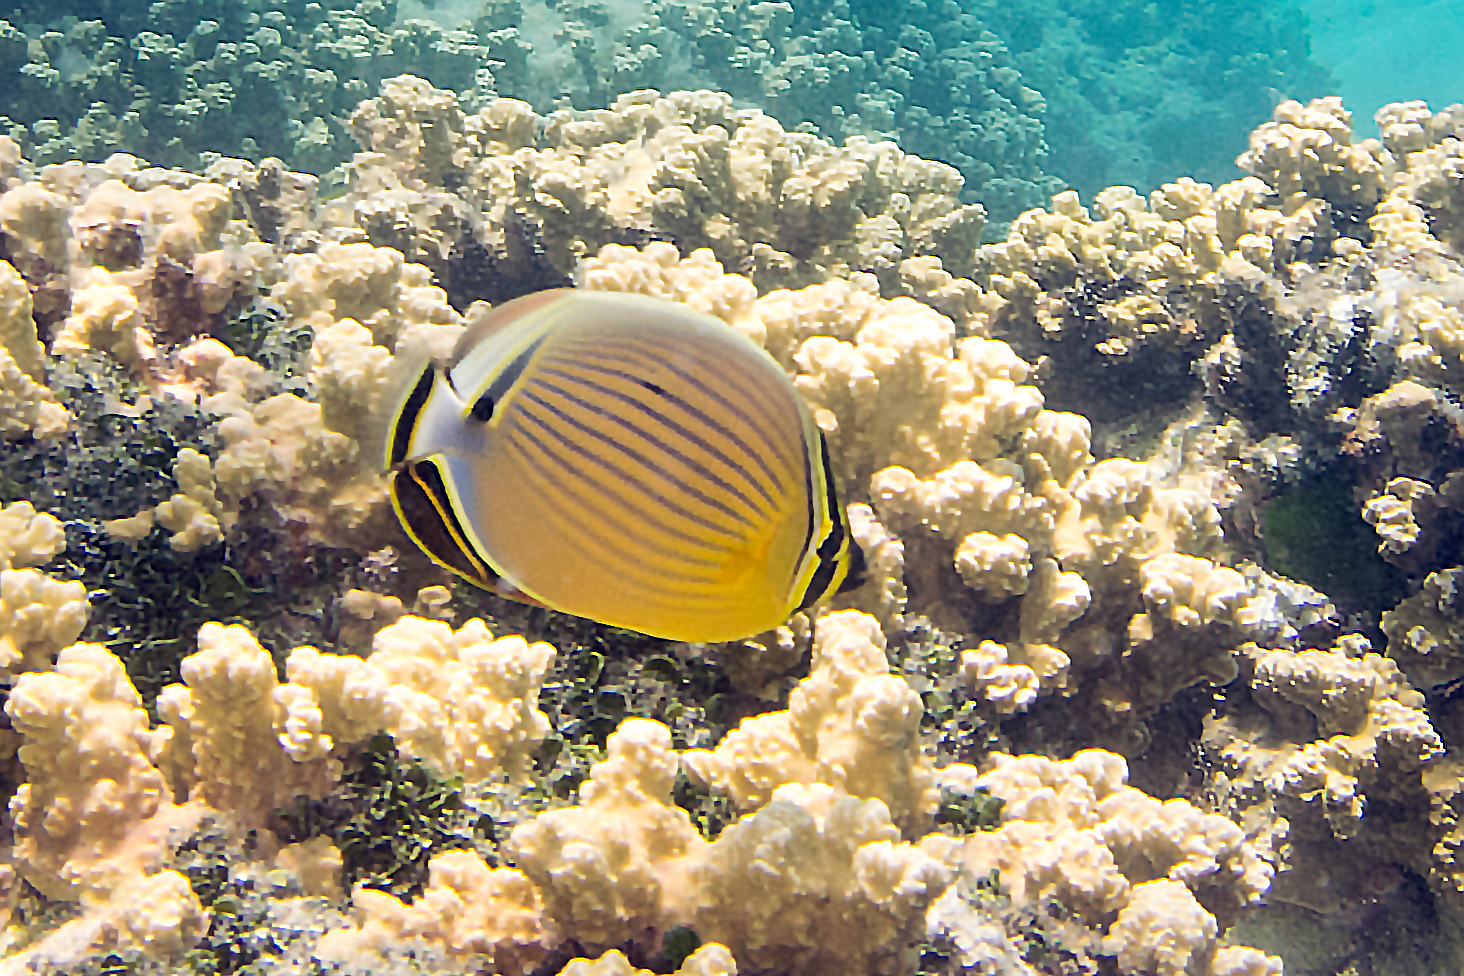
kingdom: Animalia
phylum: Chordata
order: Perciformes
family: Chaetodontidae
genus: Chaetodon
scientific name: Chaetodon lunulatus
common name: Redfin butterflyfish
